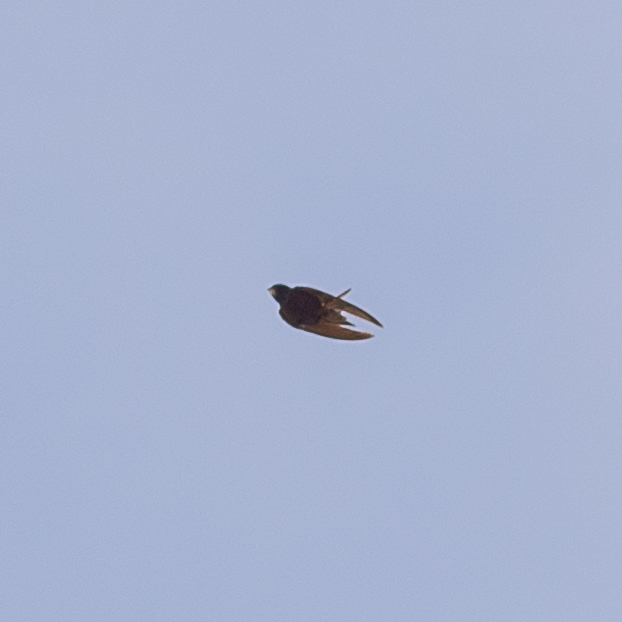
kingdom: Animalia
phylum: Chordata
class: Aves
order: Apodiformes
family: Apodidae
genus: Apus
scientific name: Apus apus
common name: Common swift
